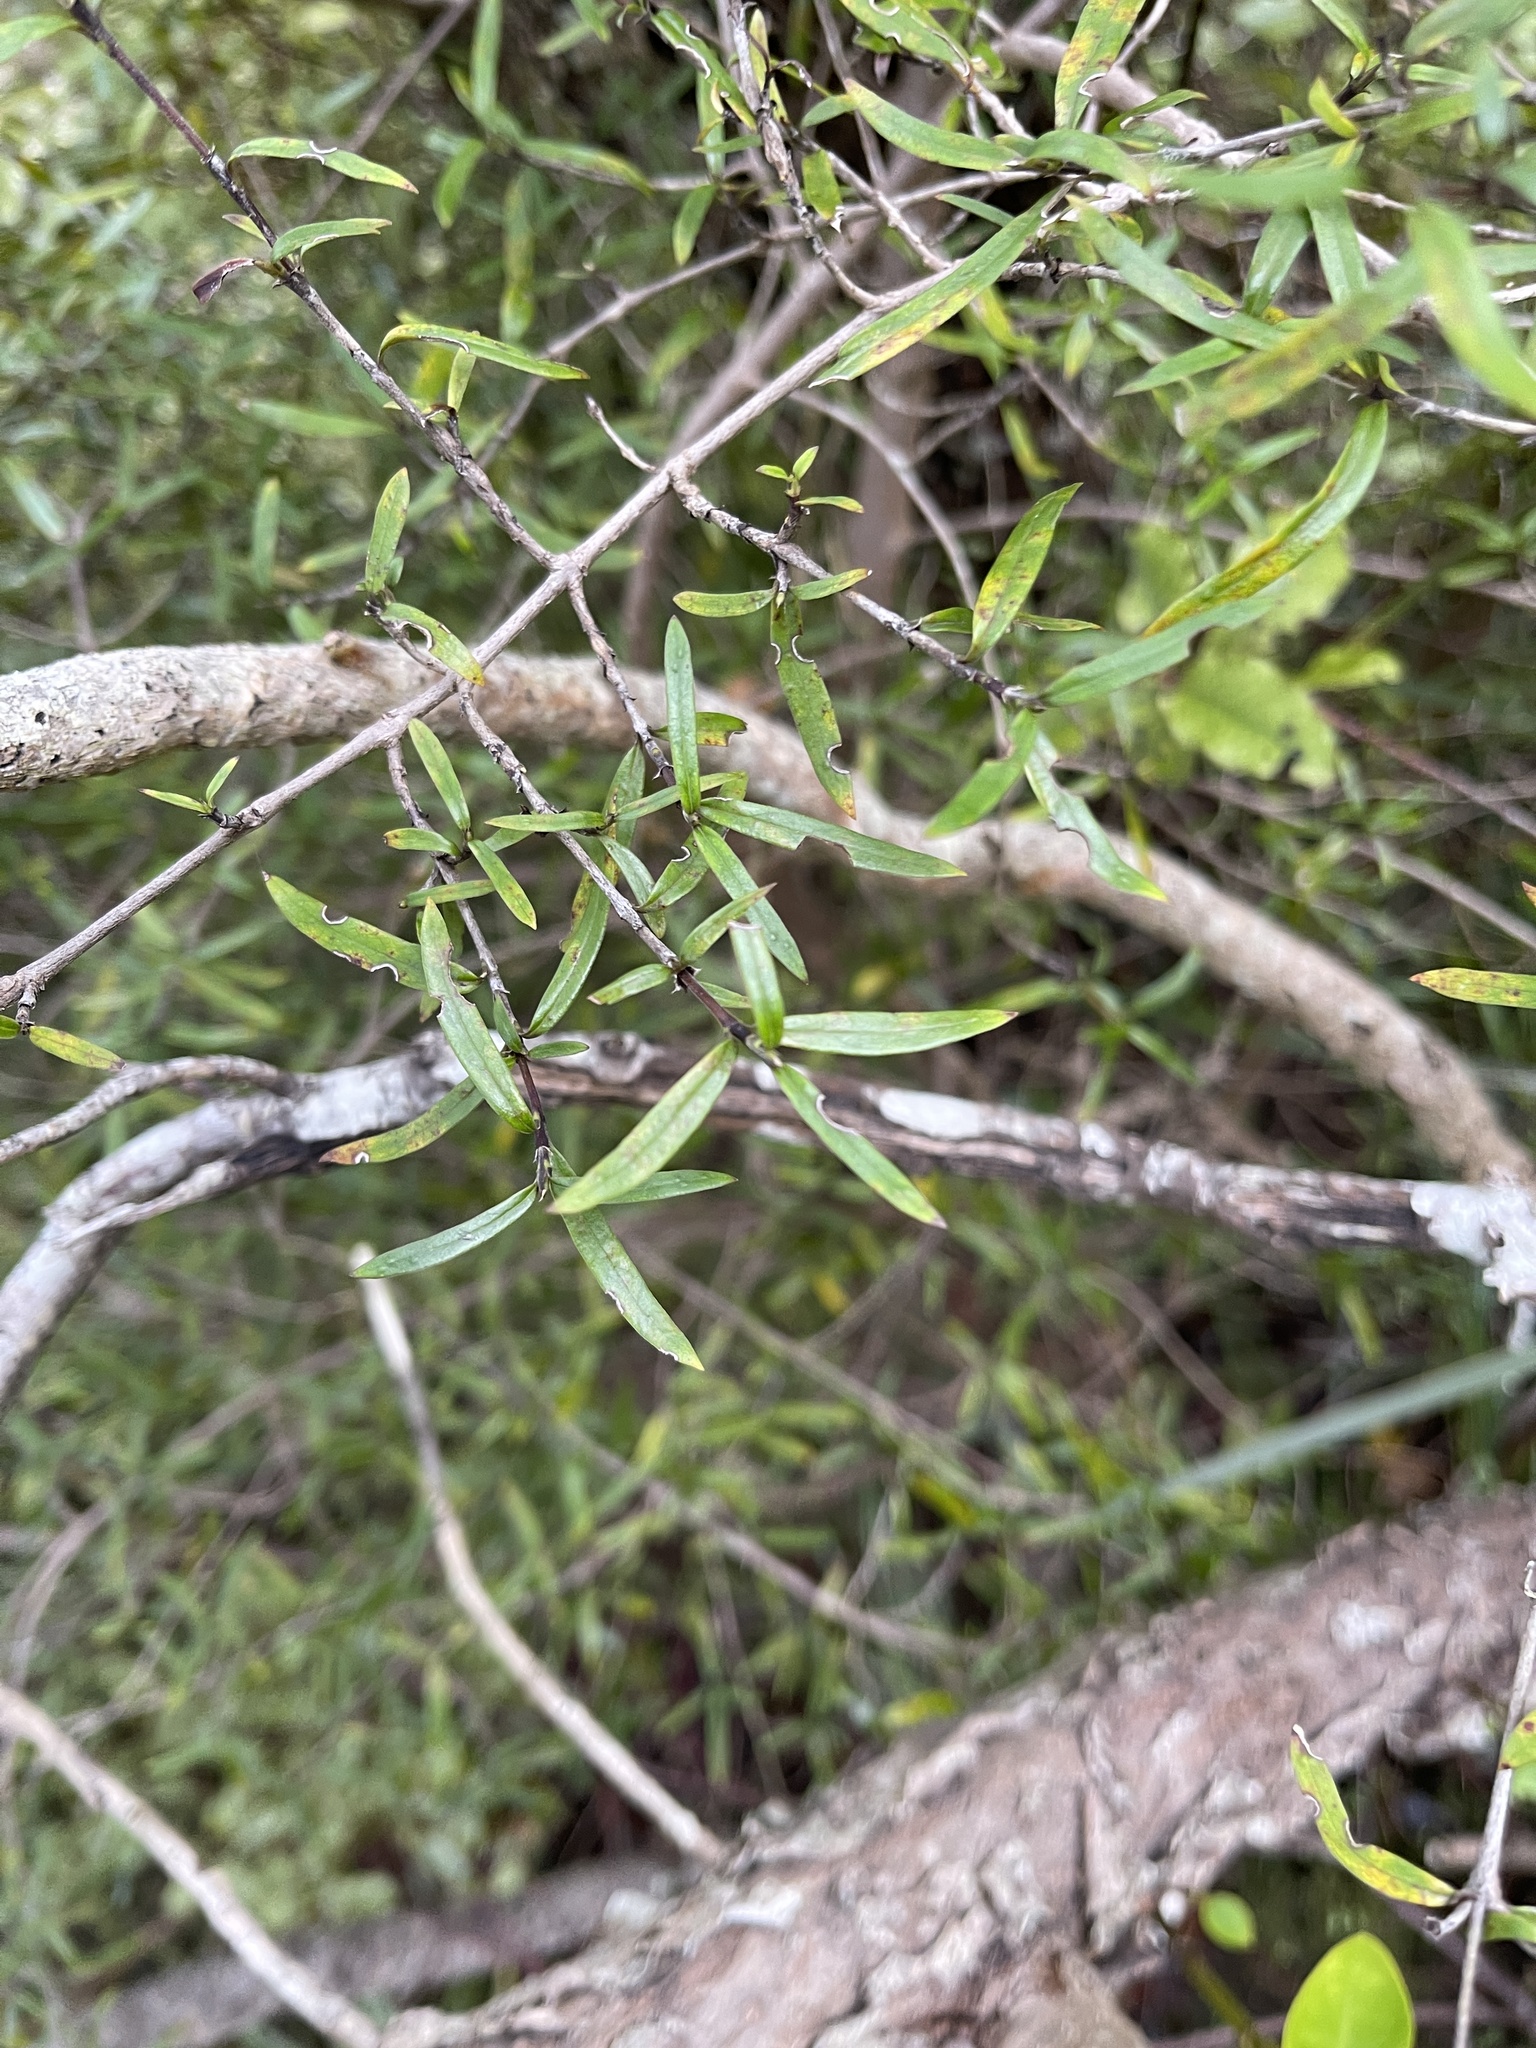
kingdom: Plantae
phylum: Tracheophyta
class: Magnoliopsida
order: Gentianales
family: Rubiaceae
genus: Coprosma
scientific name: Coprosma linariifolia
